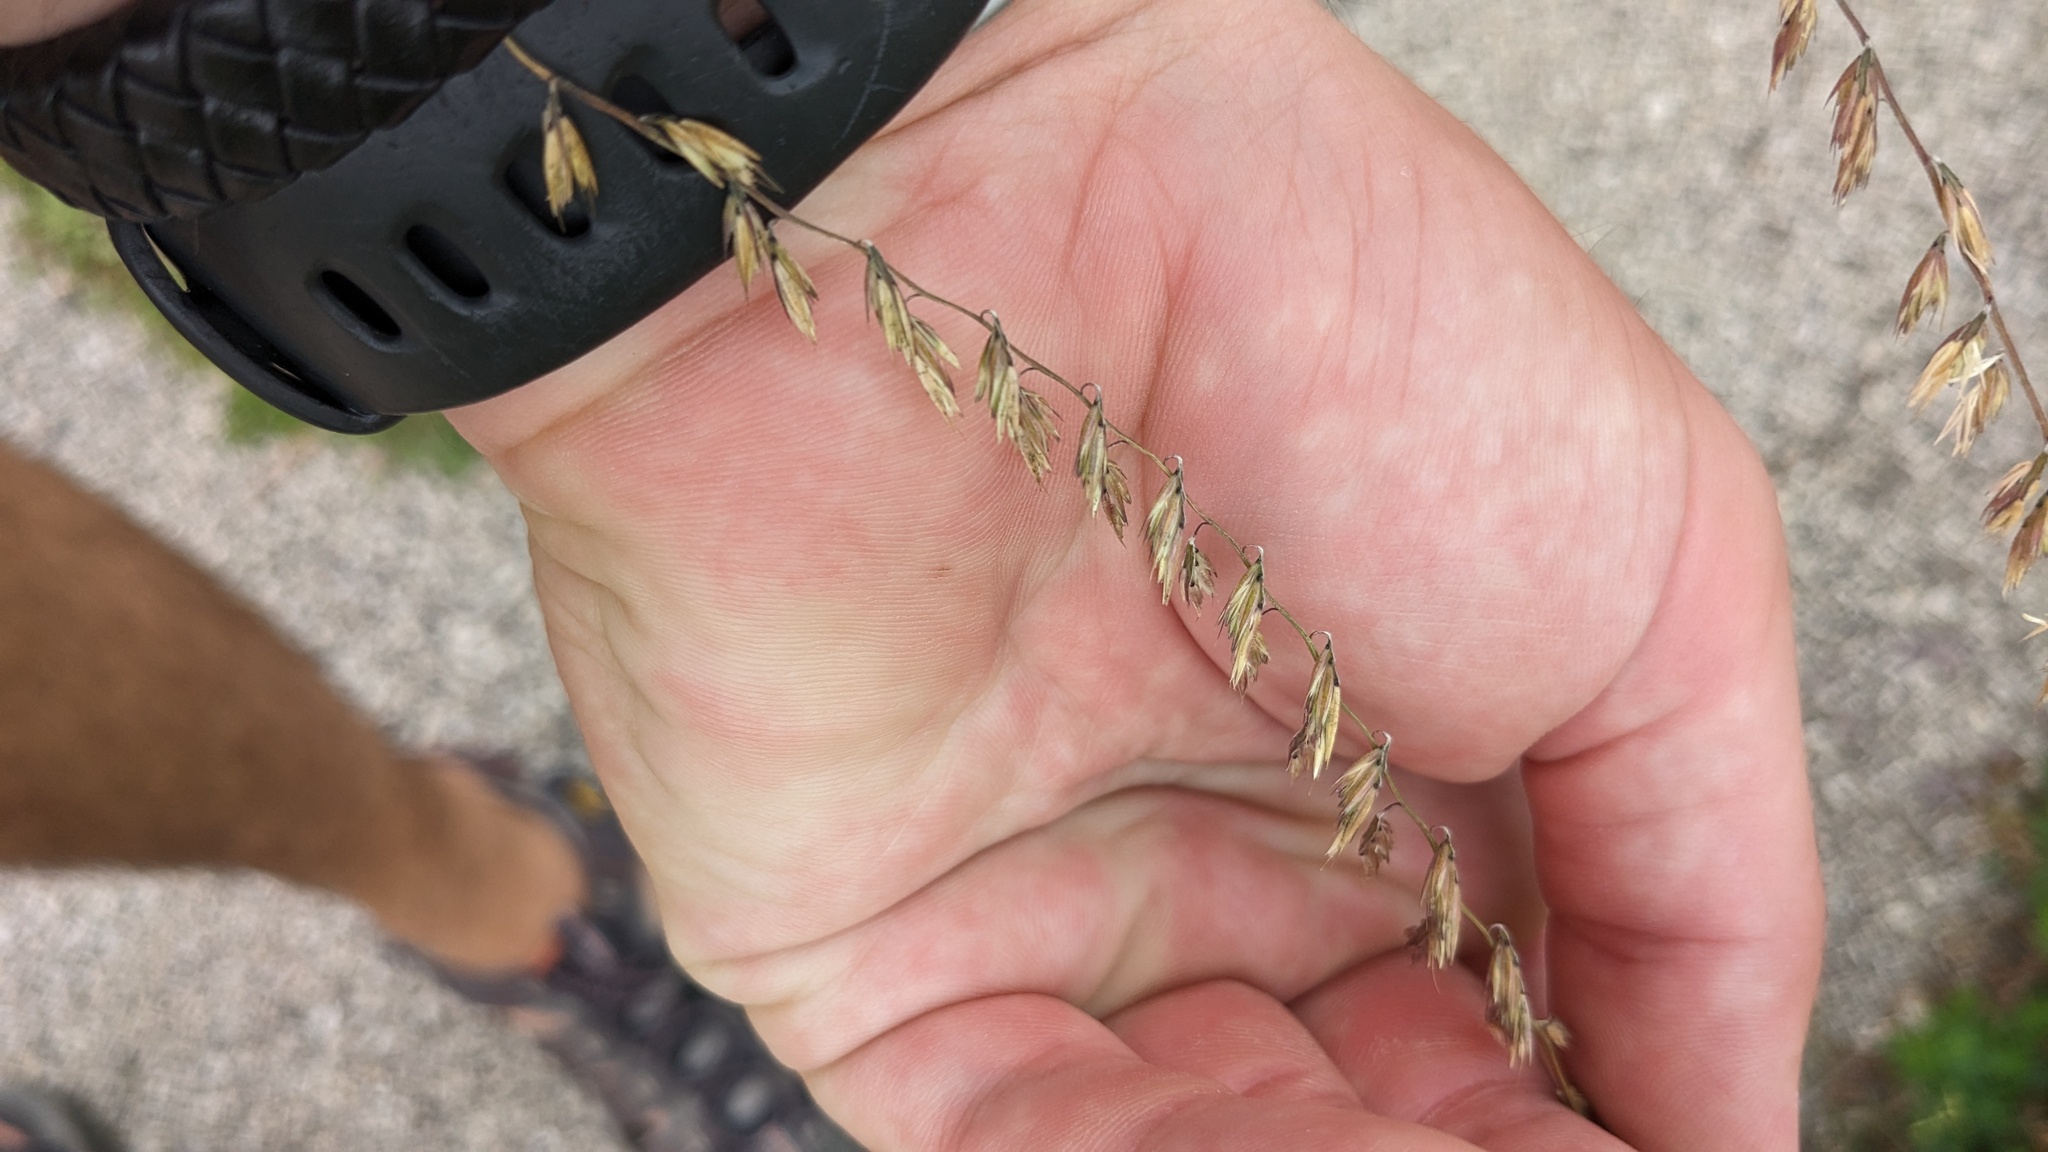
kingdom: Plantae
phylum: Tracheophyta
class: Liliopsida
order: Poales
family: Poaceae
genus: Bouteloua
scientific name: Bouteloua curtipendula
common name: Side-oats grama
